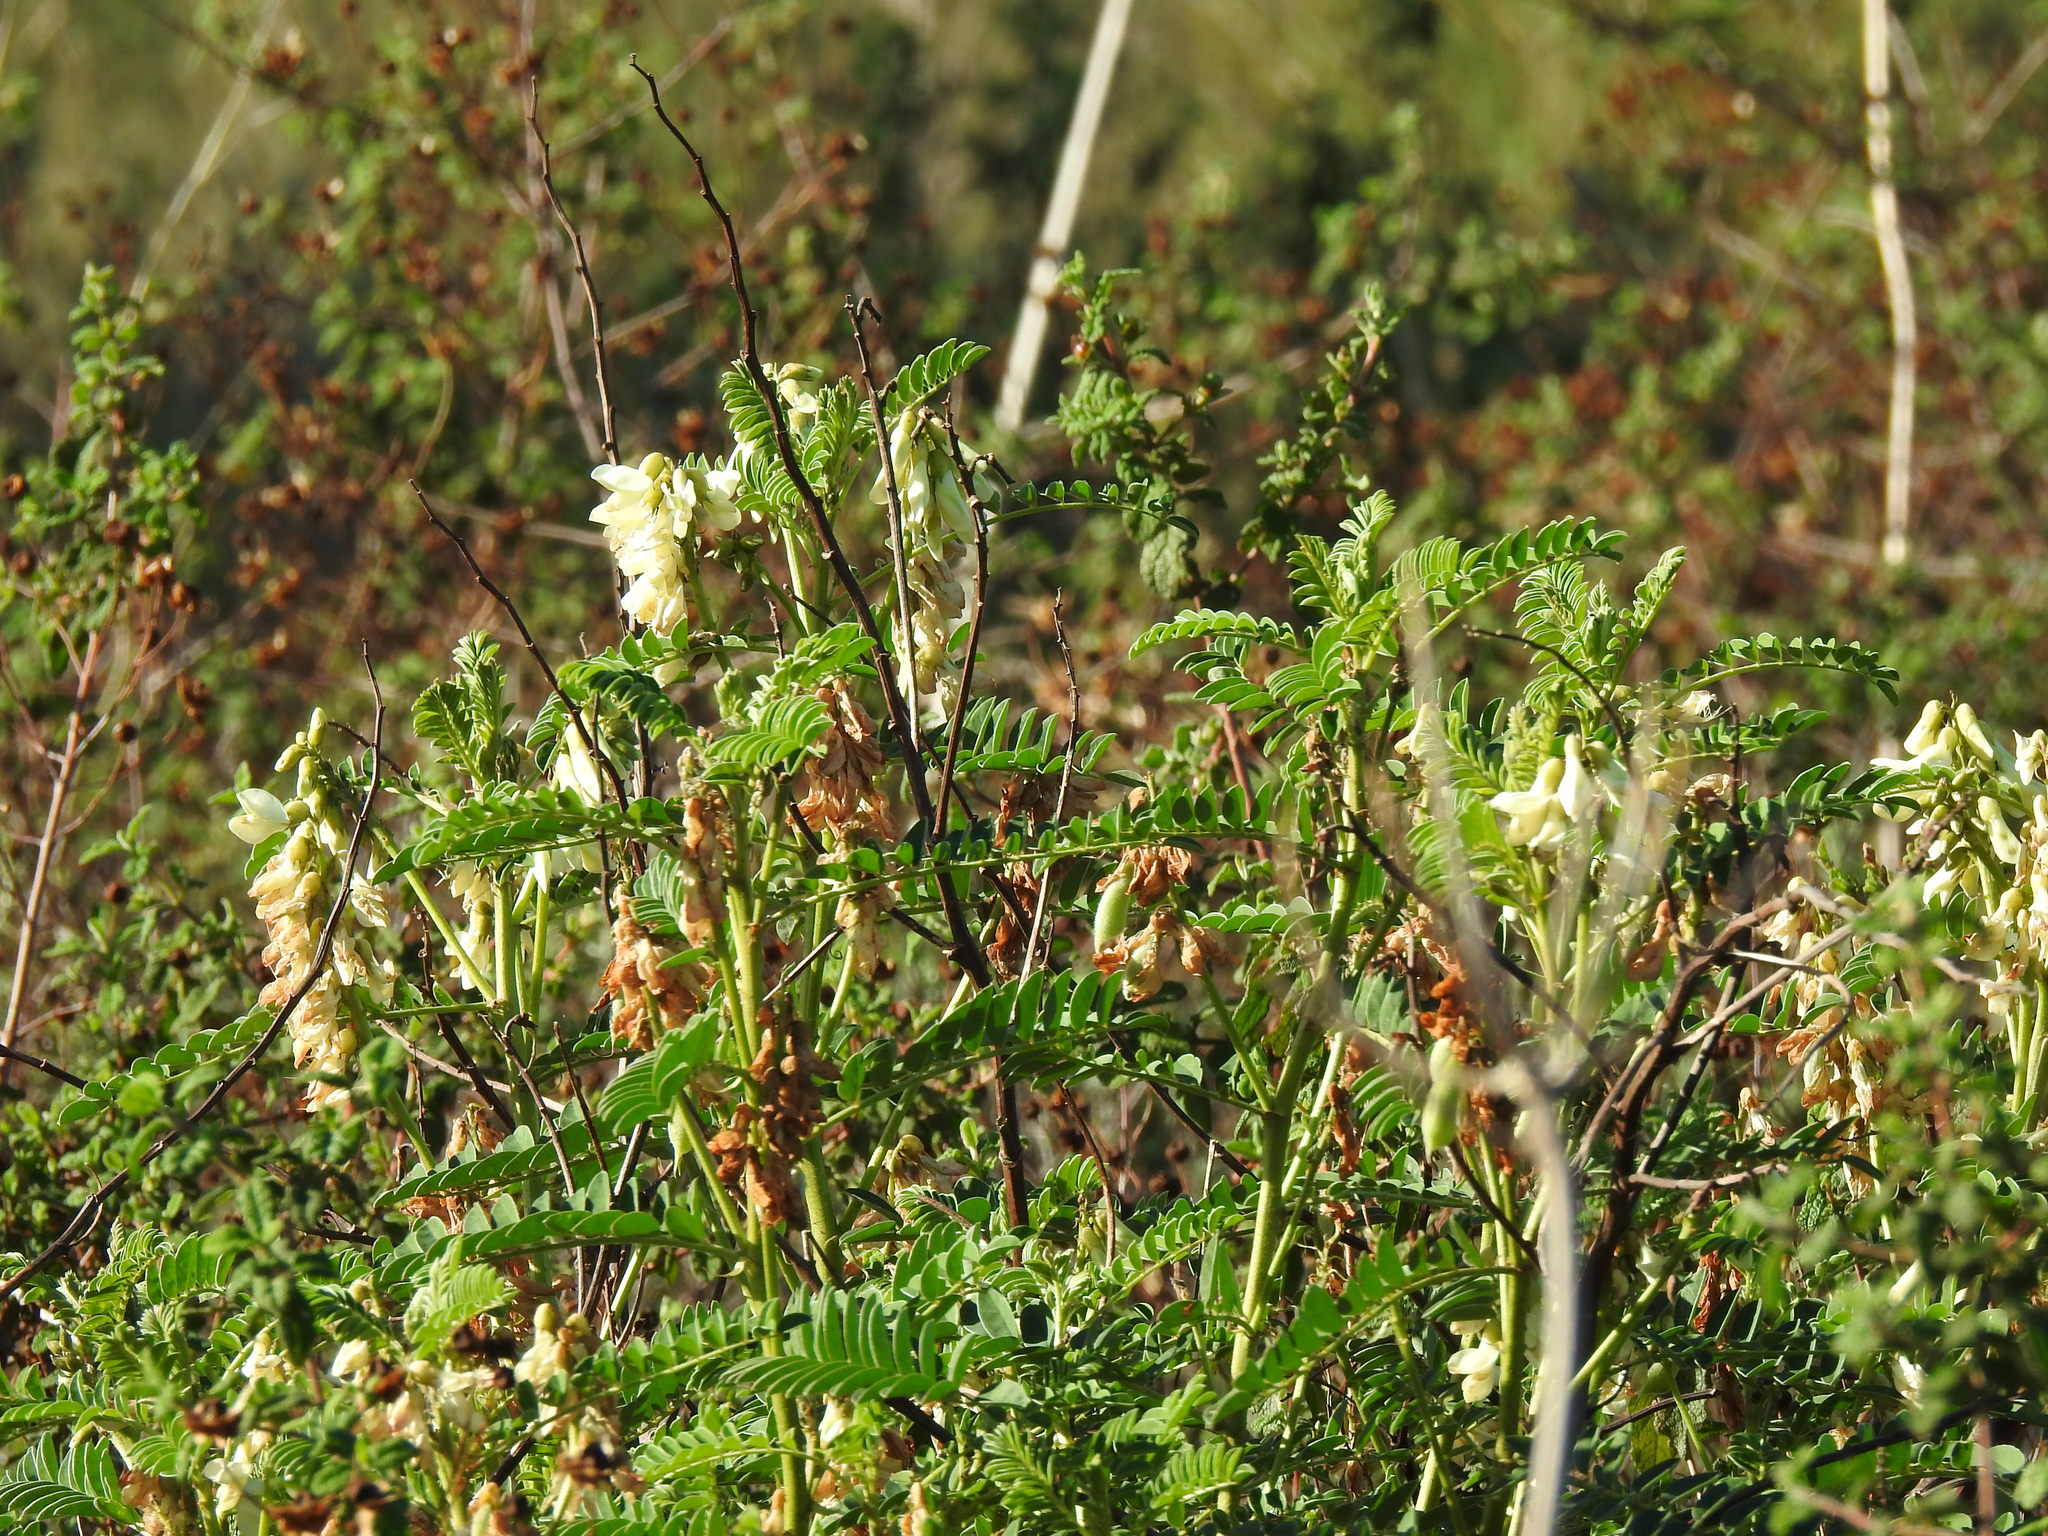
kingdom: Plantae
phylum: Tracheophyta
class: Magnoliopsida
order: Fabales
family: Fabaceae
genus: Erophaca
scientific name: Erophaca baetica
